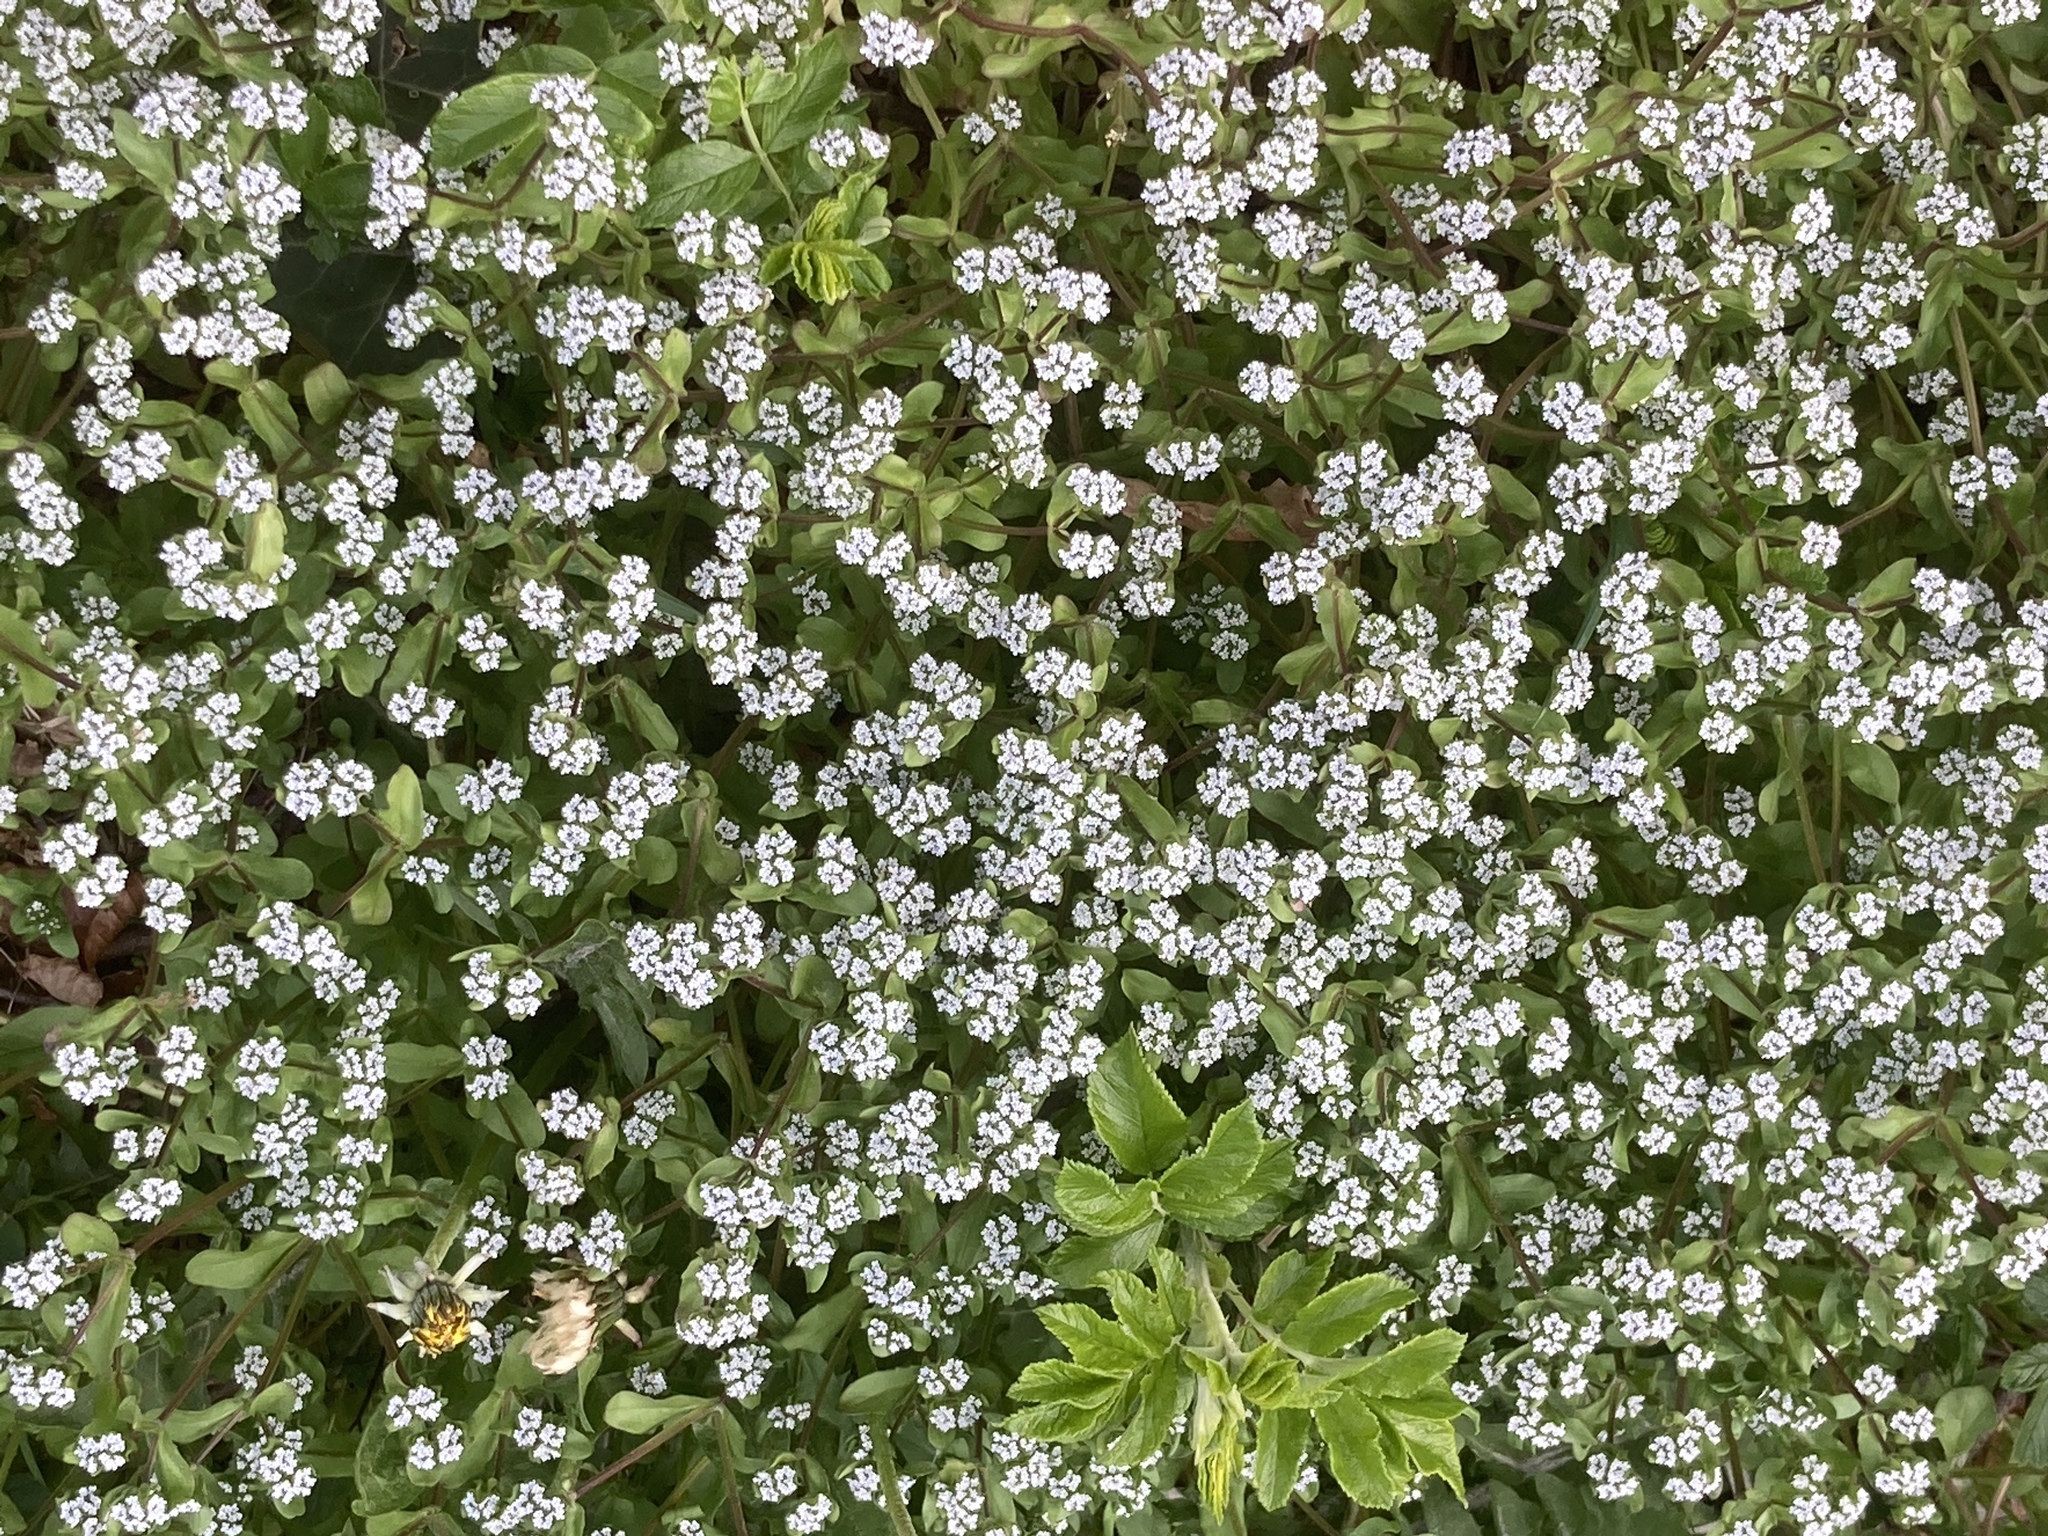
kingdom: Plantae
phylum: Tracheophyta
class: Magnoliopsida
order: Dipsacales
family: Caprifoliaceae
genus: Valerianella
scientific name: Valerianella locusta
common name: Common cornsalad
